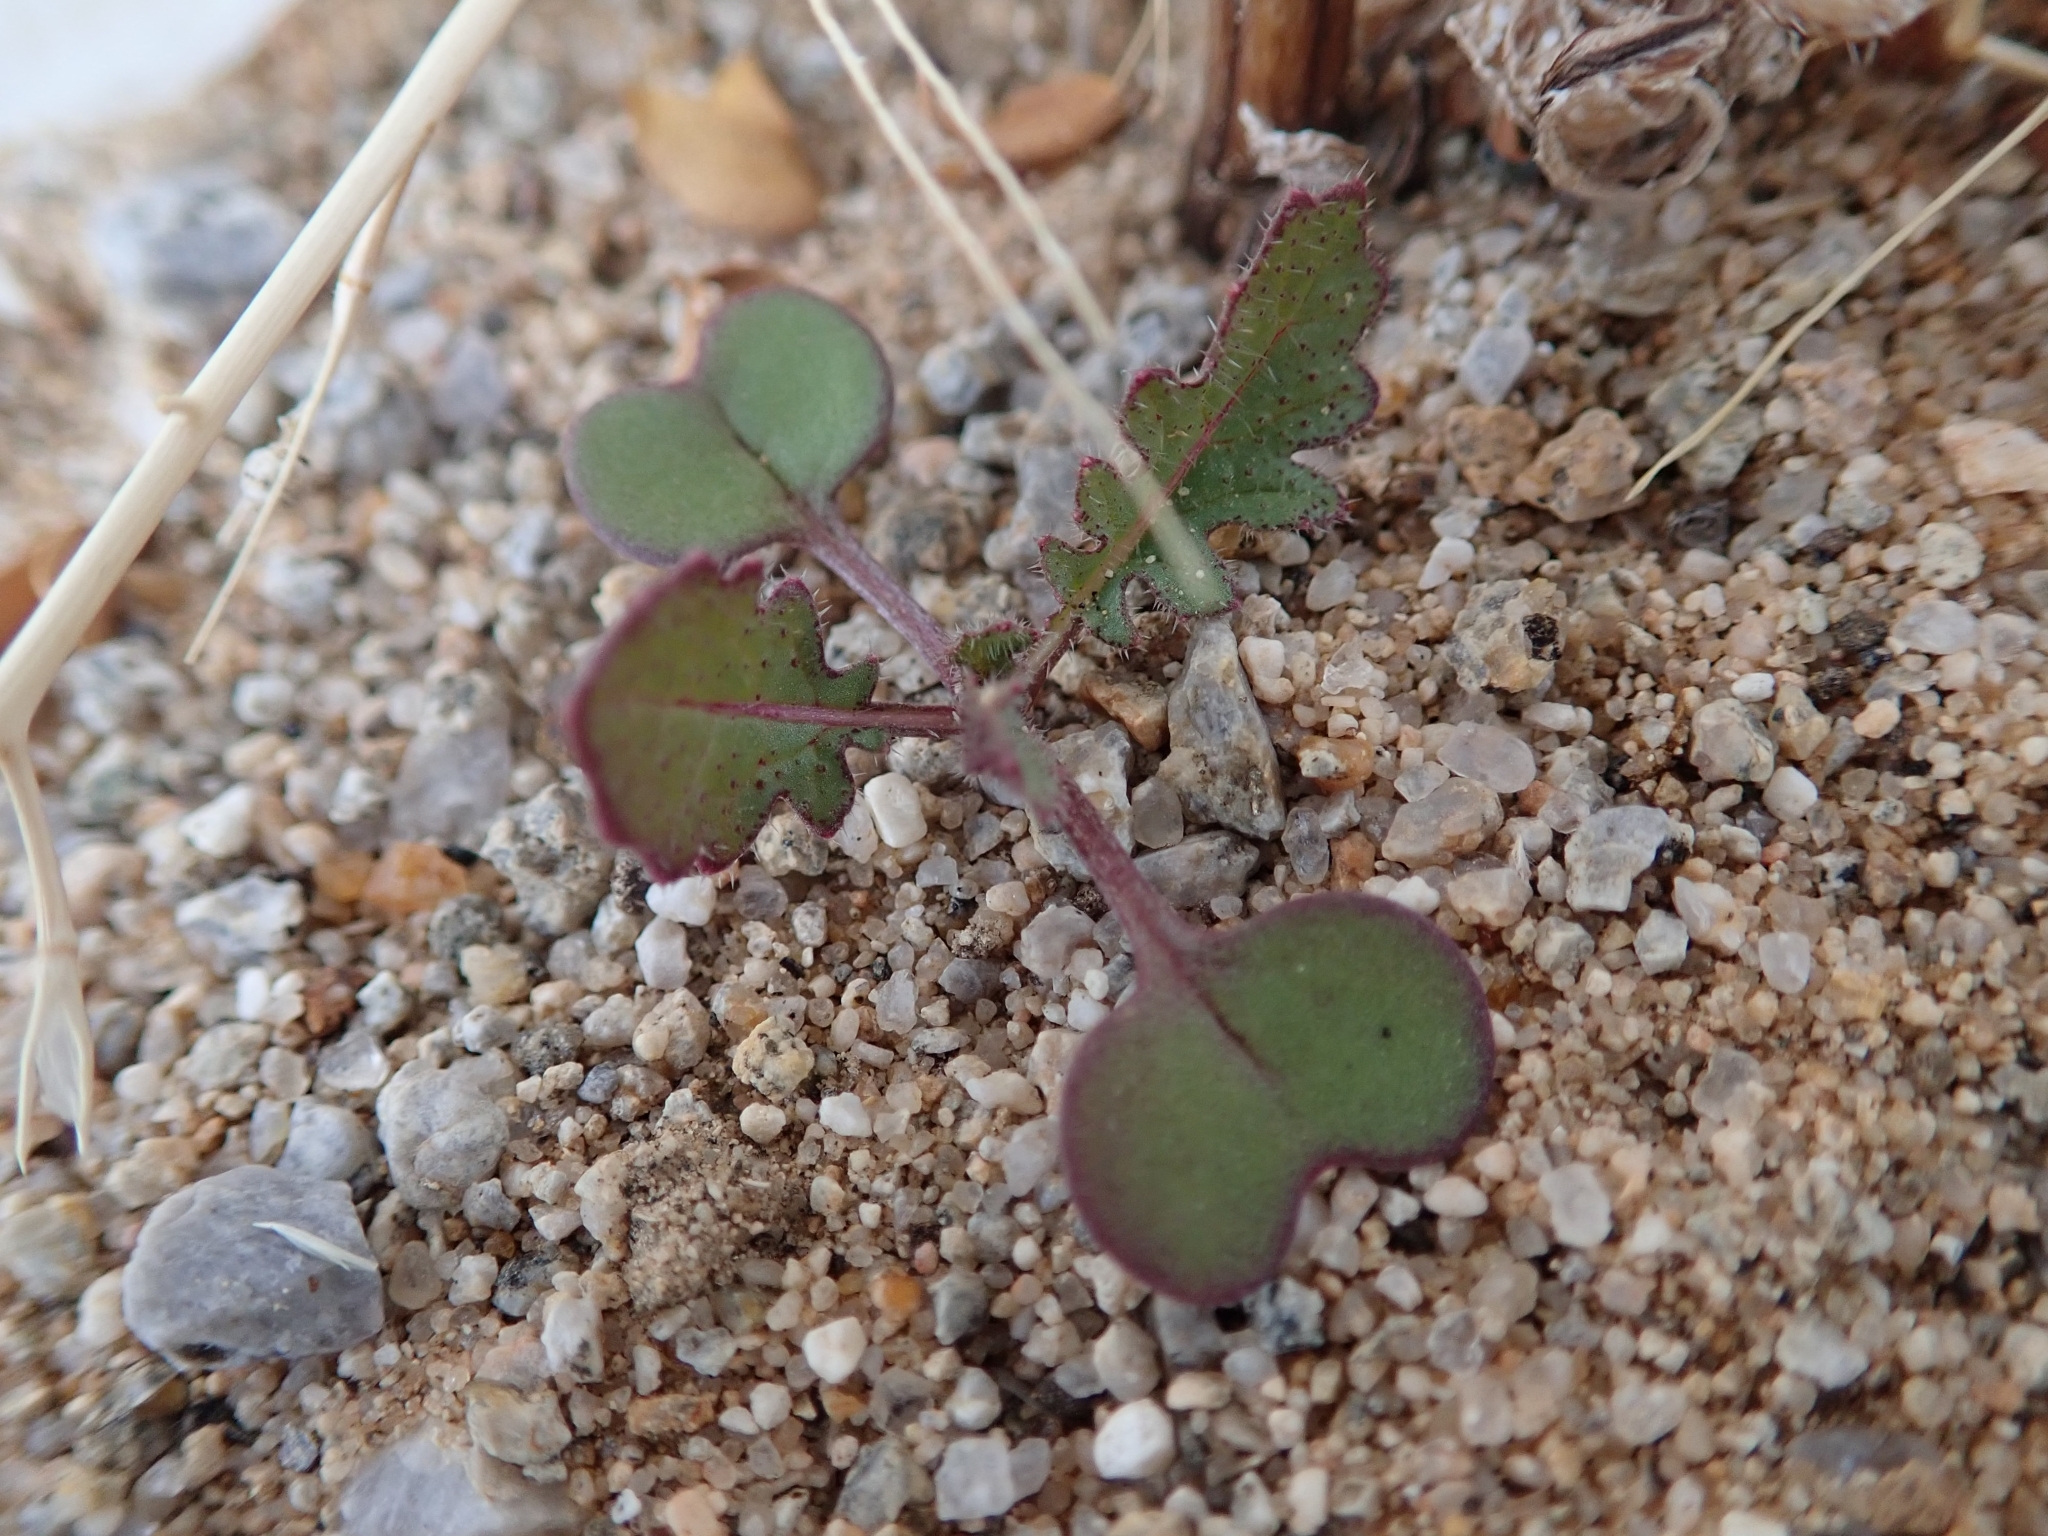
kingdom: Plantae
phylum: Tracheophyta
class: Magnoliopsida
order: Brassicales
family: Brassicaceae
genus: Brassica
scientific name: Brassica tournefortii
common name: Pale cabbage
